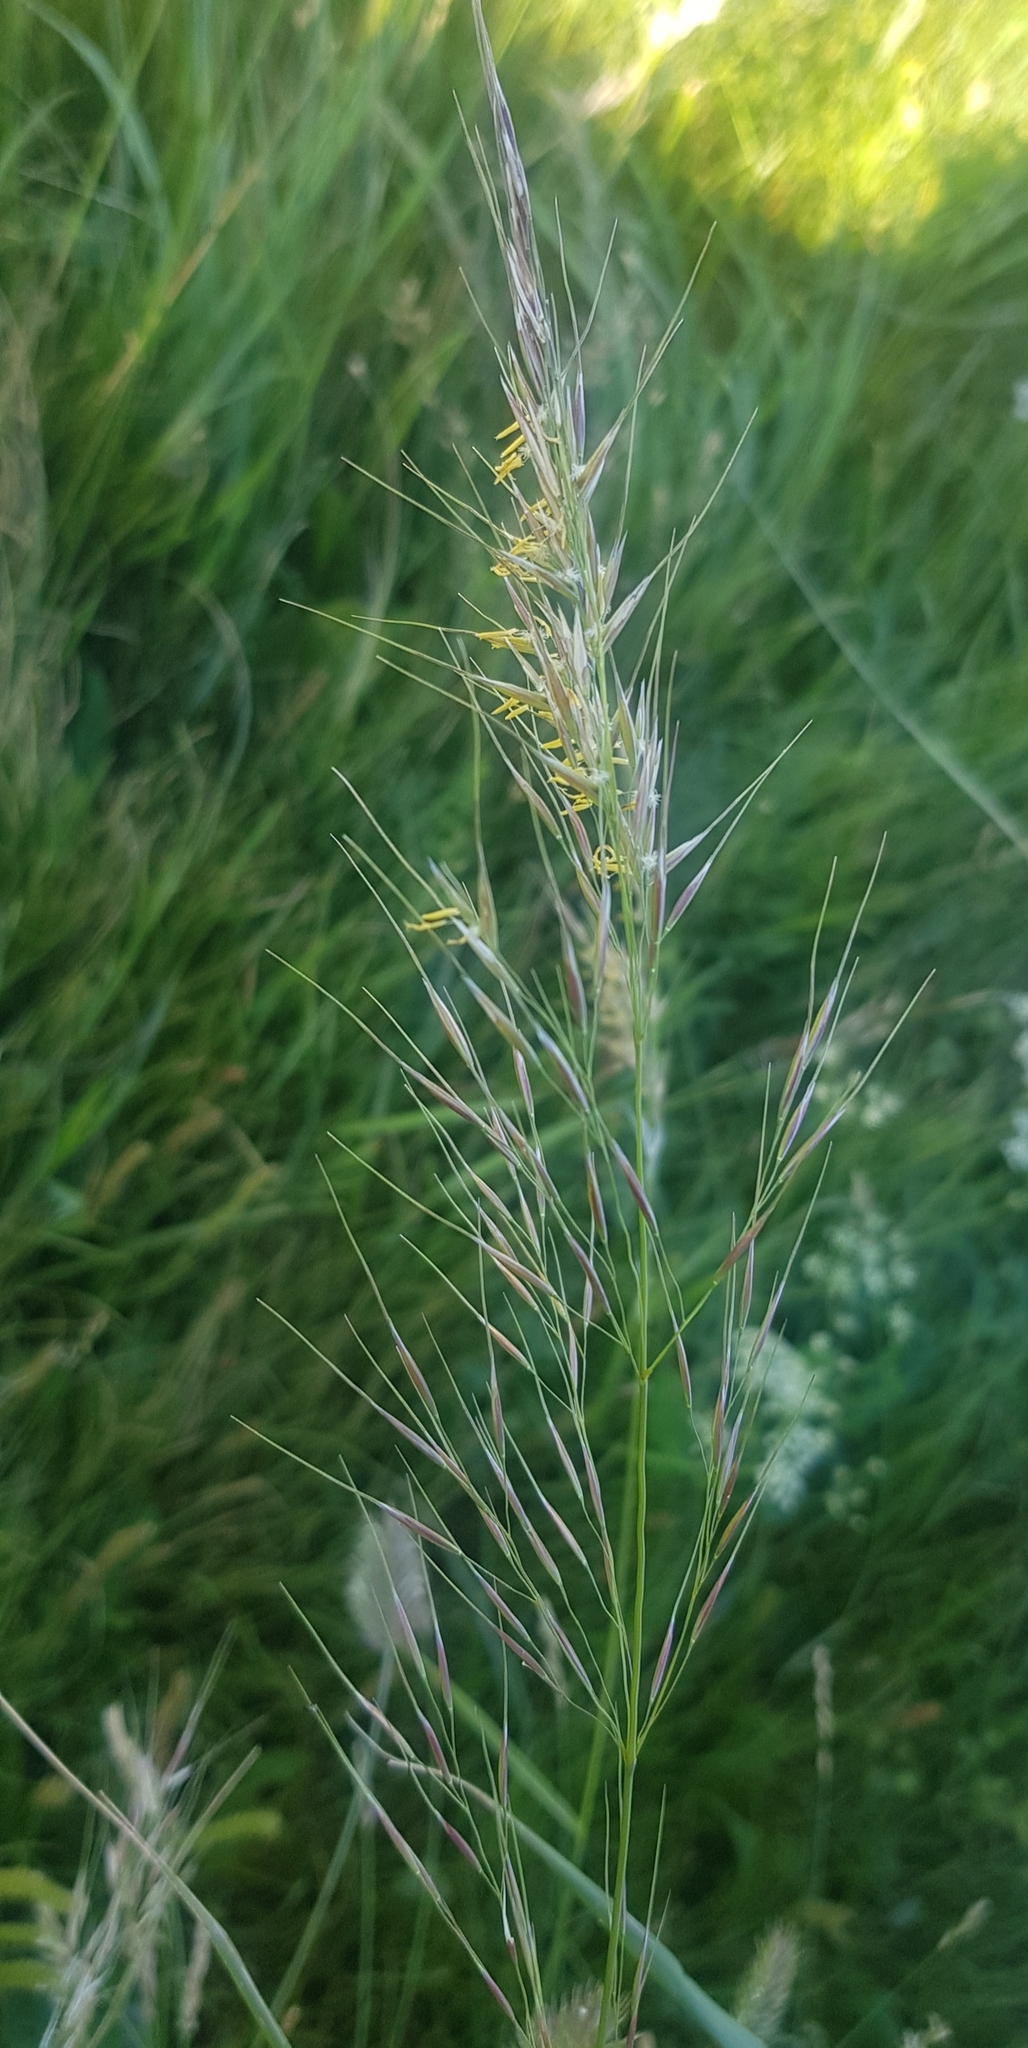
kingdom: Plantae
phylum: Tracheophyta
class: Liliopsida
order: Poales
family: Poaceae
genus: Achnatherum
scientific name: Achnatherum sibiricum
